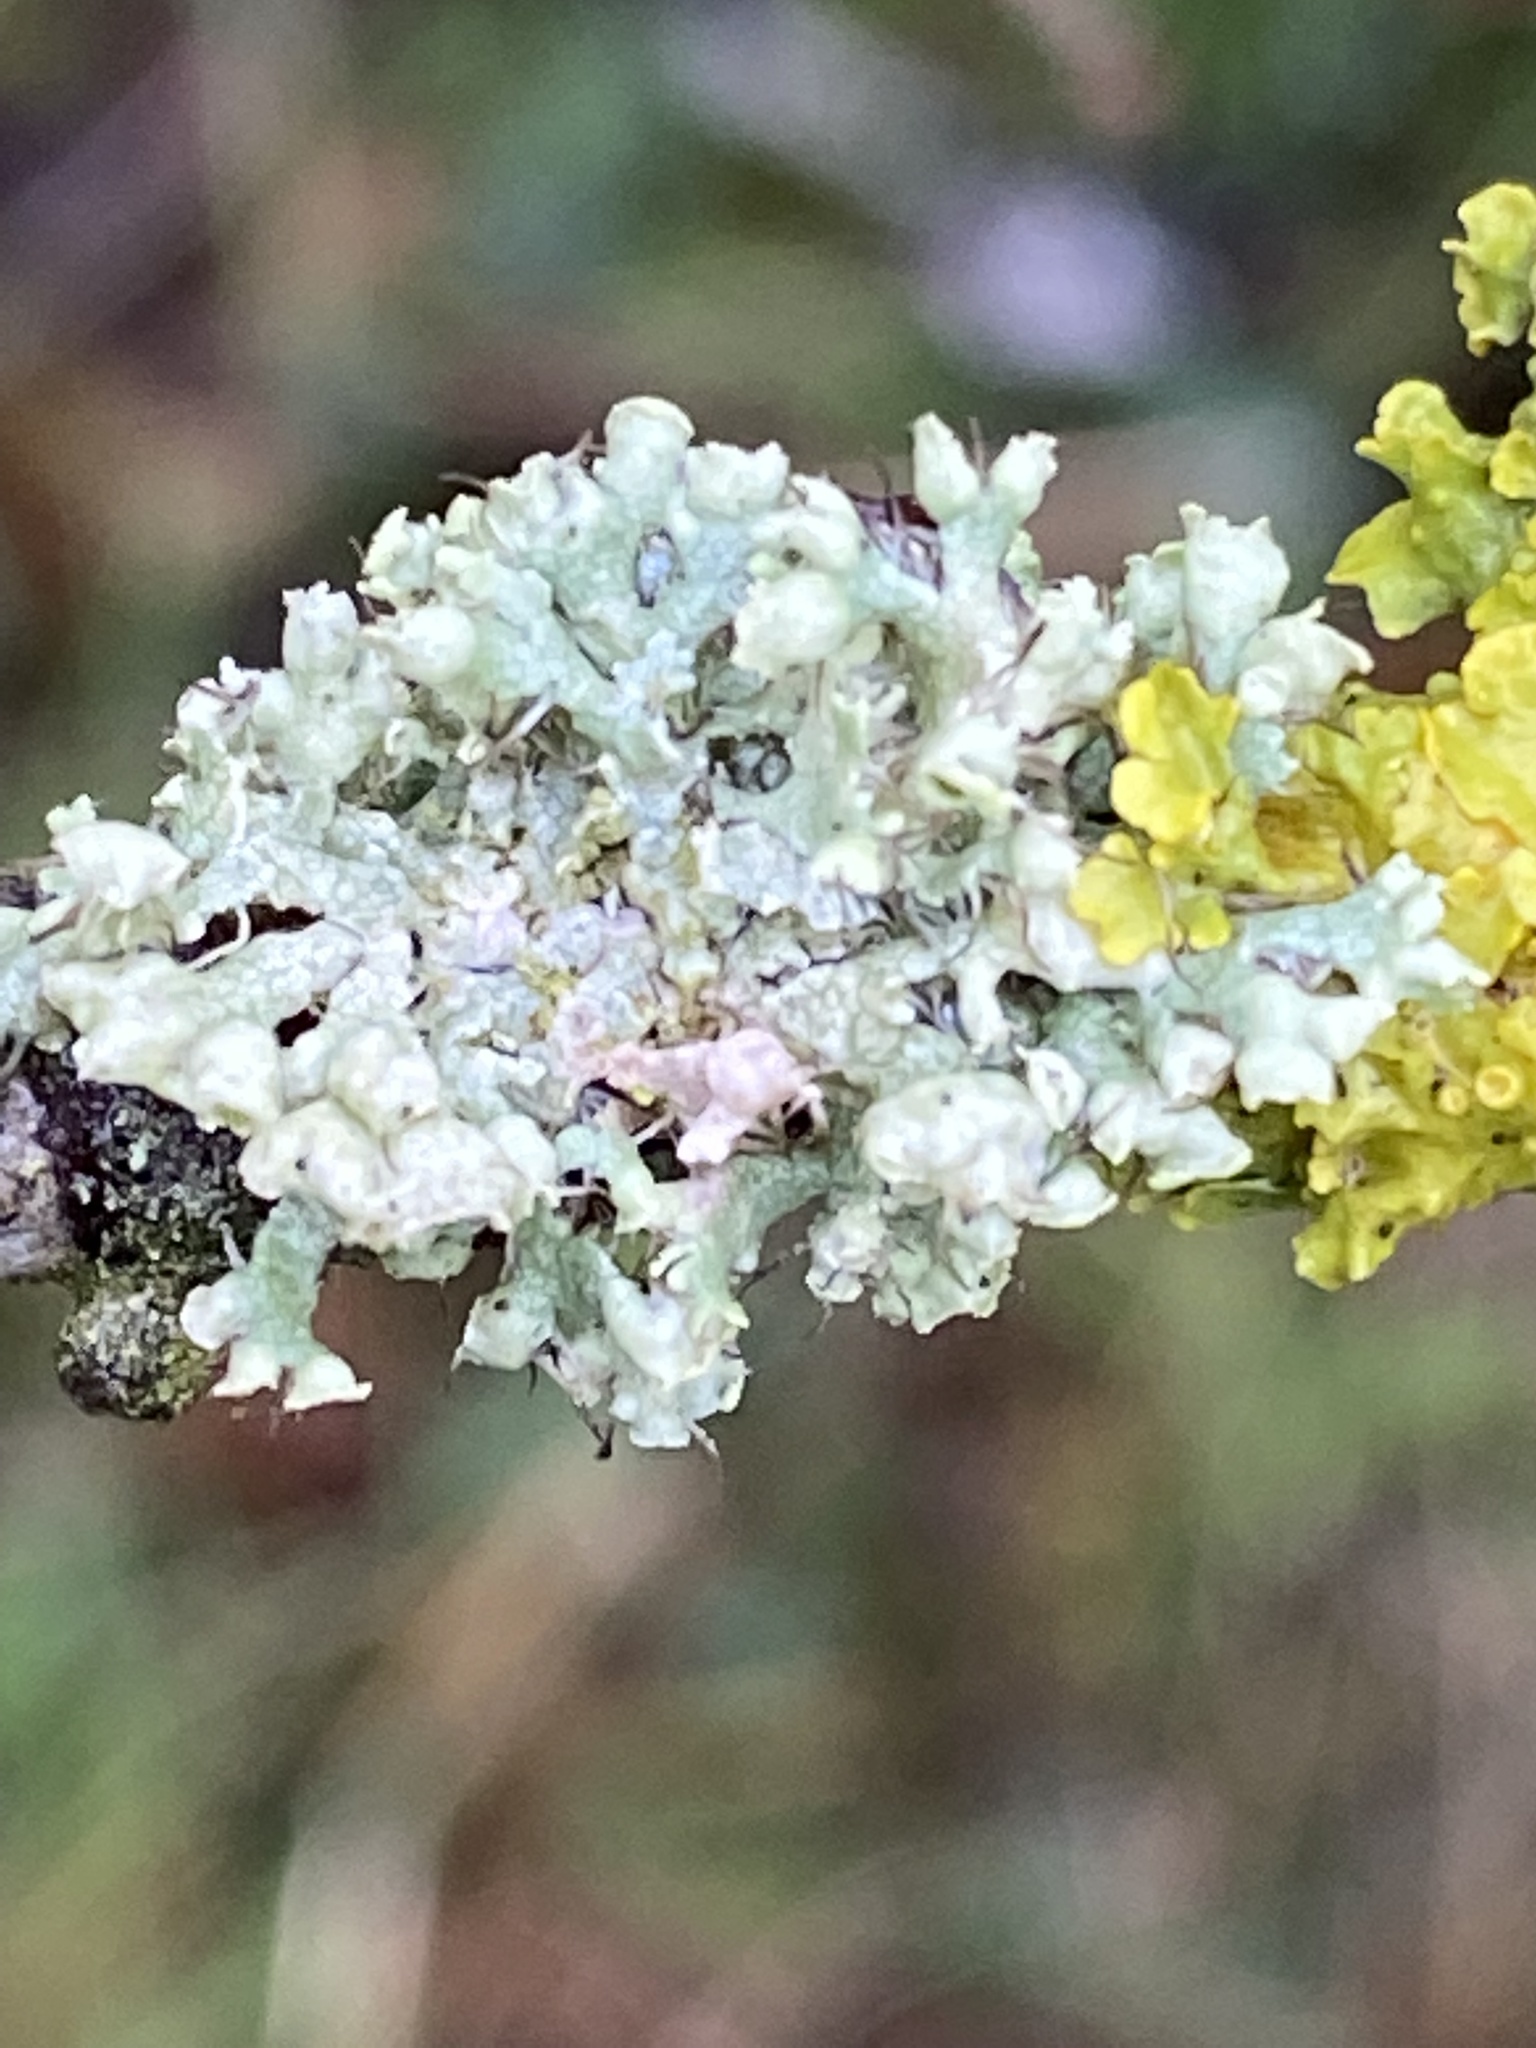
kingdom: Fungi
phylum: Ascomycota
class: Lecanoromycetes
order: Caliciales
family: Physciaceae
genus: Physcia
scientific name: Physcia adscendens
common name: Hooded rosette lichen
